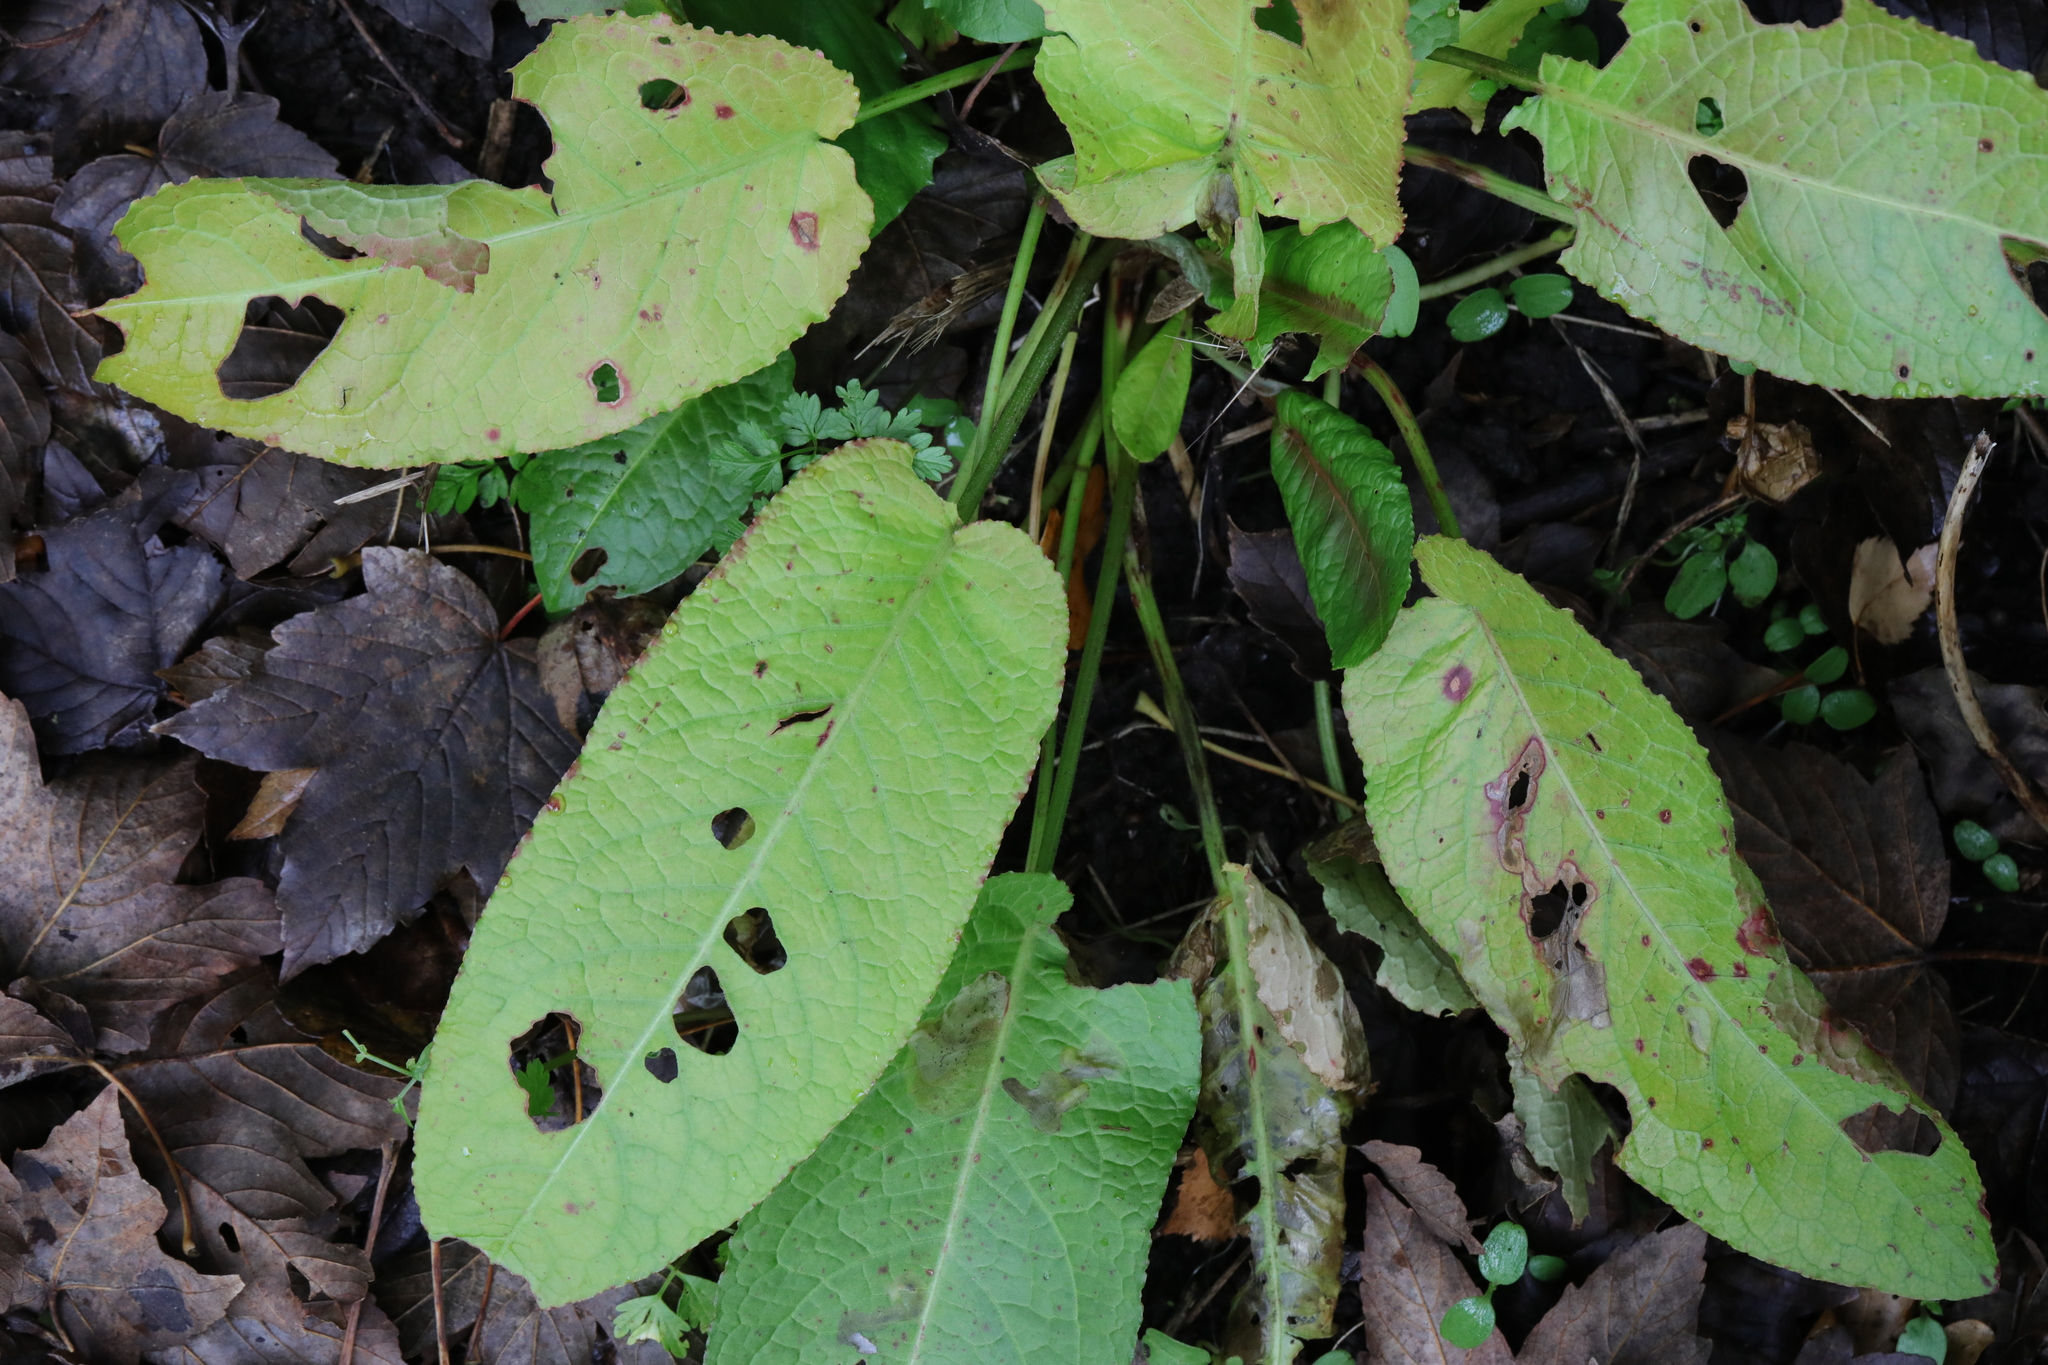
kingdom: Plantae
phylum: Tracheophyta
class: Magnoliopsida
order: Caryophyllales
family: Polygonaceae
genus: Rumex
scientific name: Rumex obtusifolius
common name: Bitter dock
